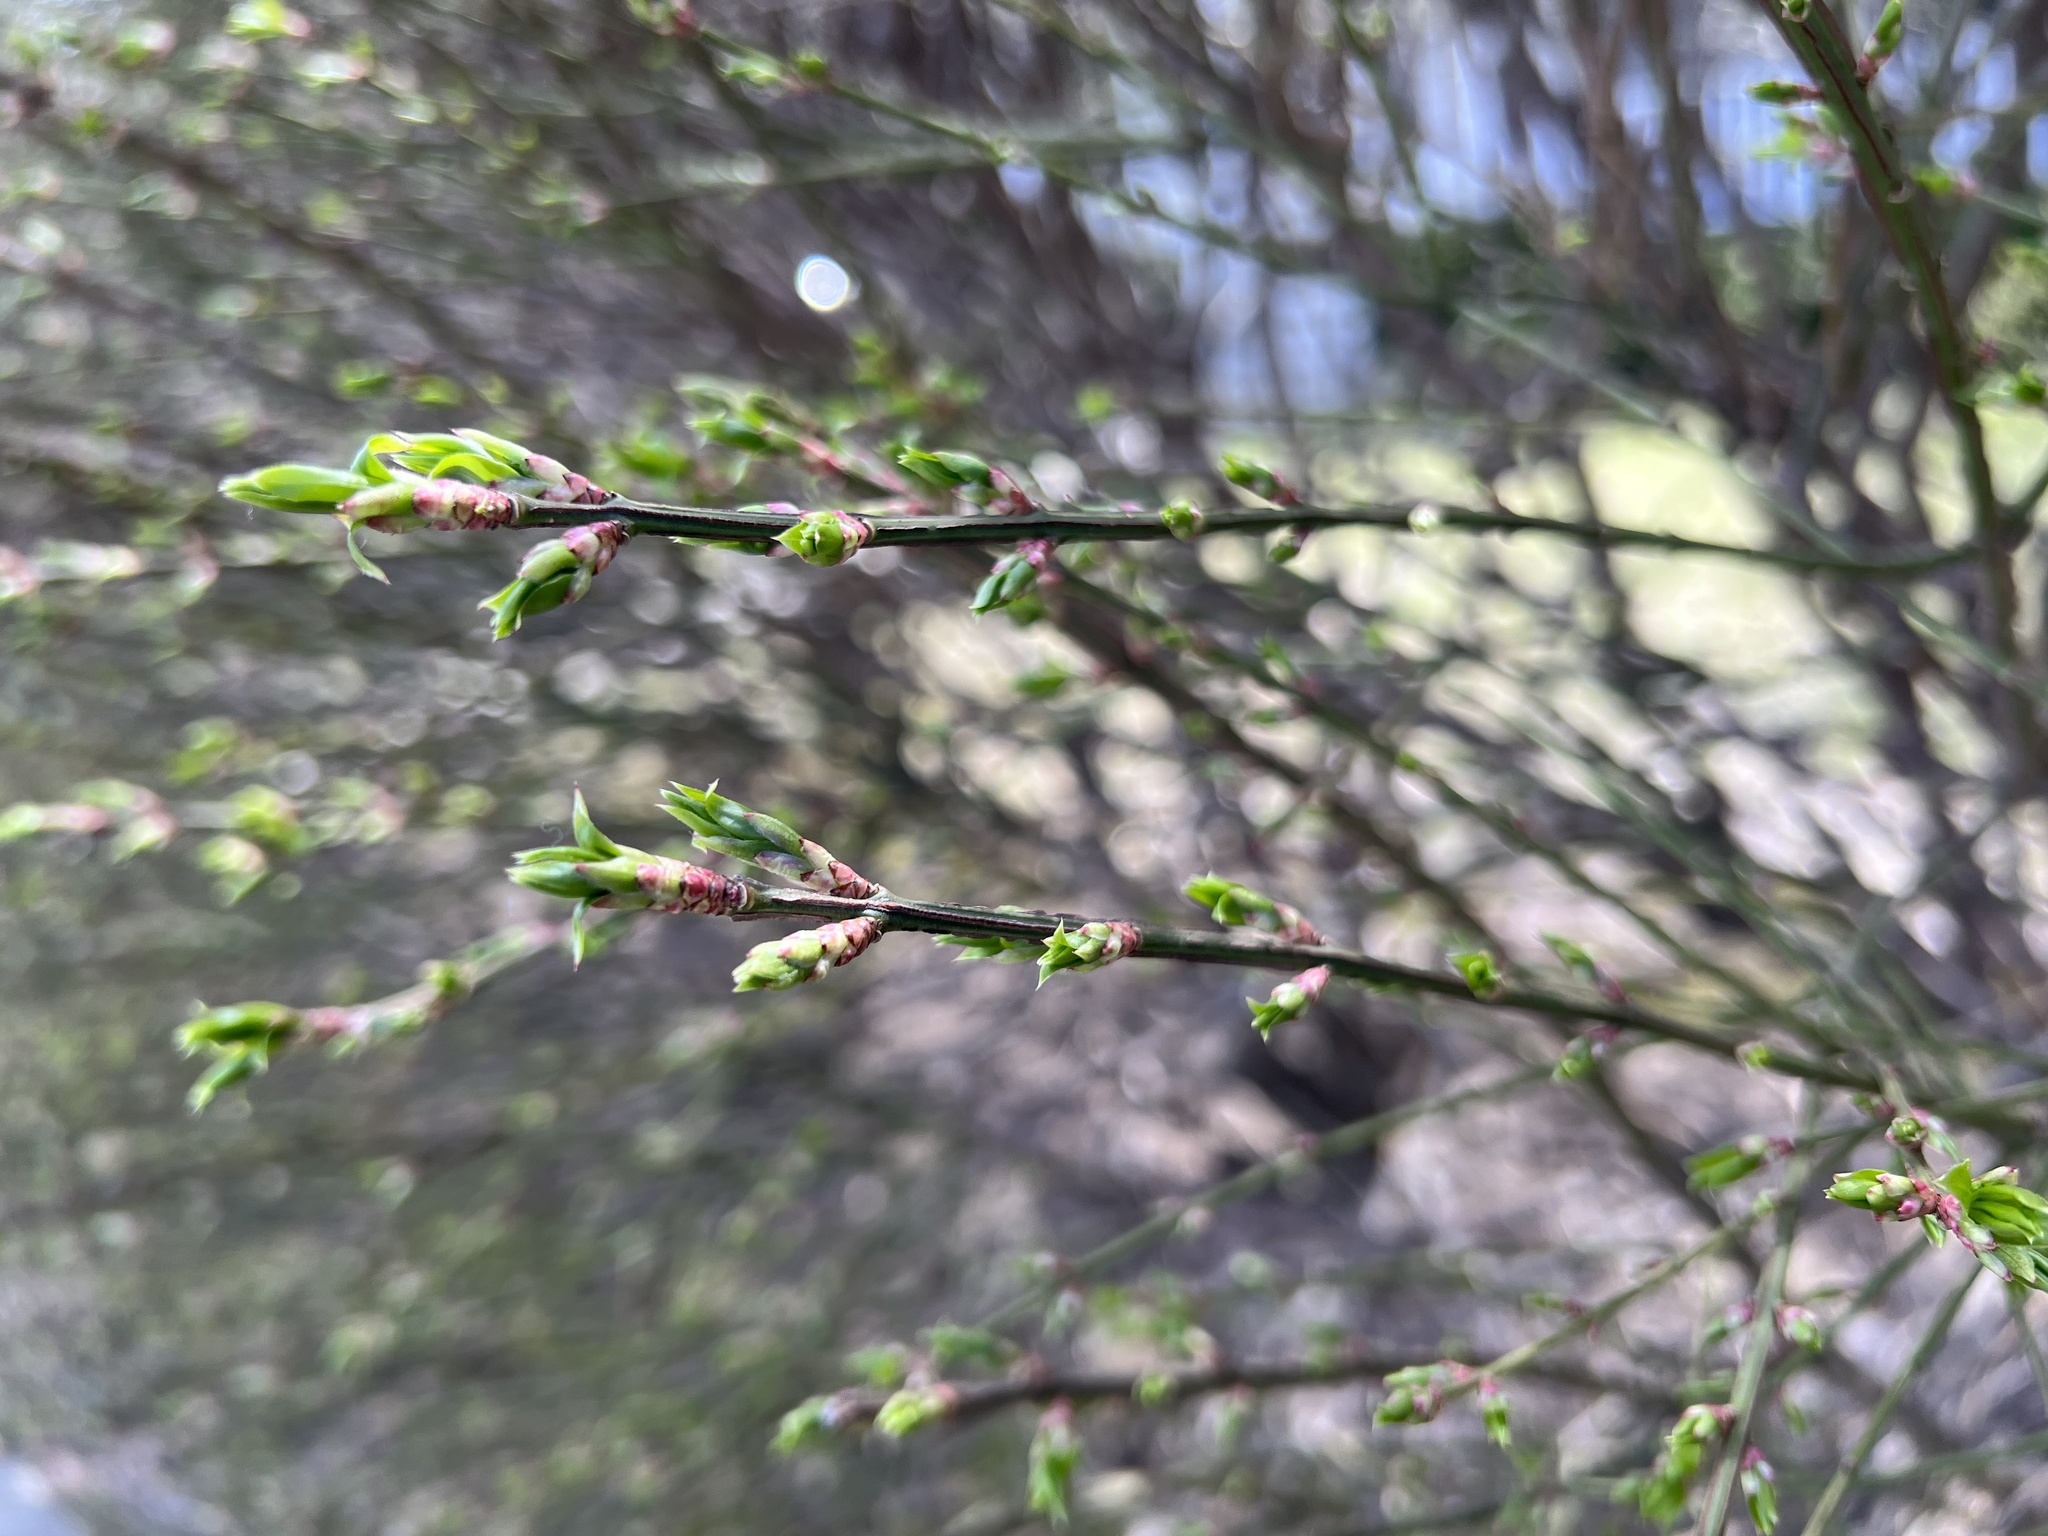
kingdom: Plantae
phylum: Tracheophyta
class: Magnoliopsida
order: Celastrales
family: Celastraceae
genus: Euonymus
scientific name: Euonymus alatus
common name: Winged euonymus
